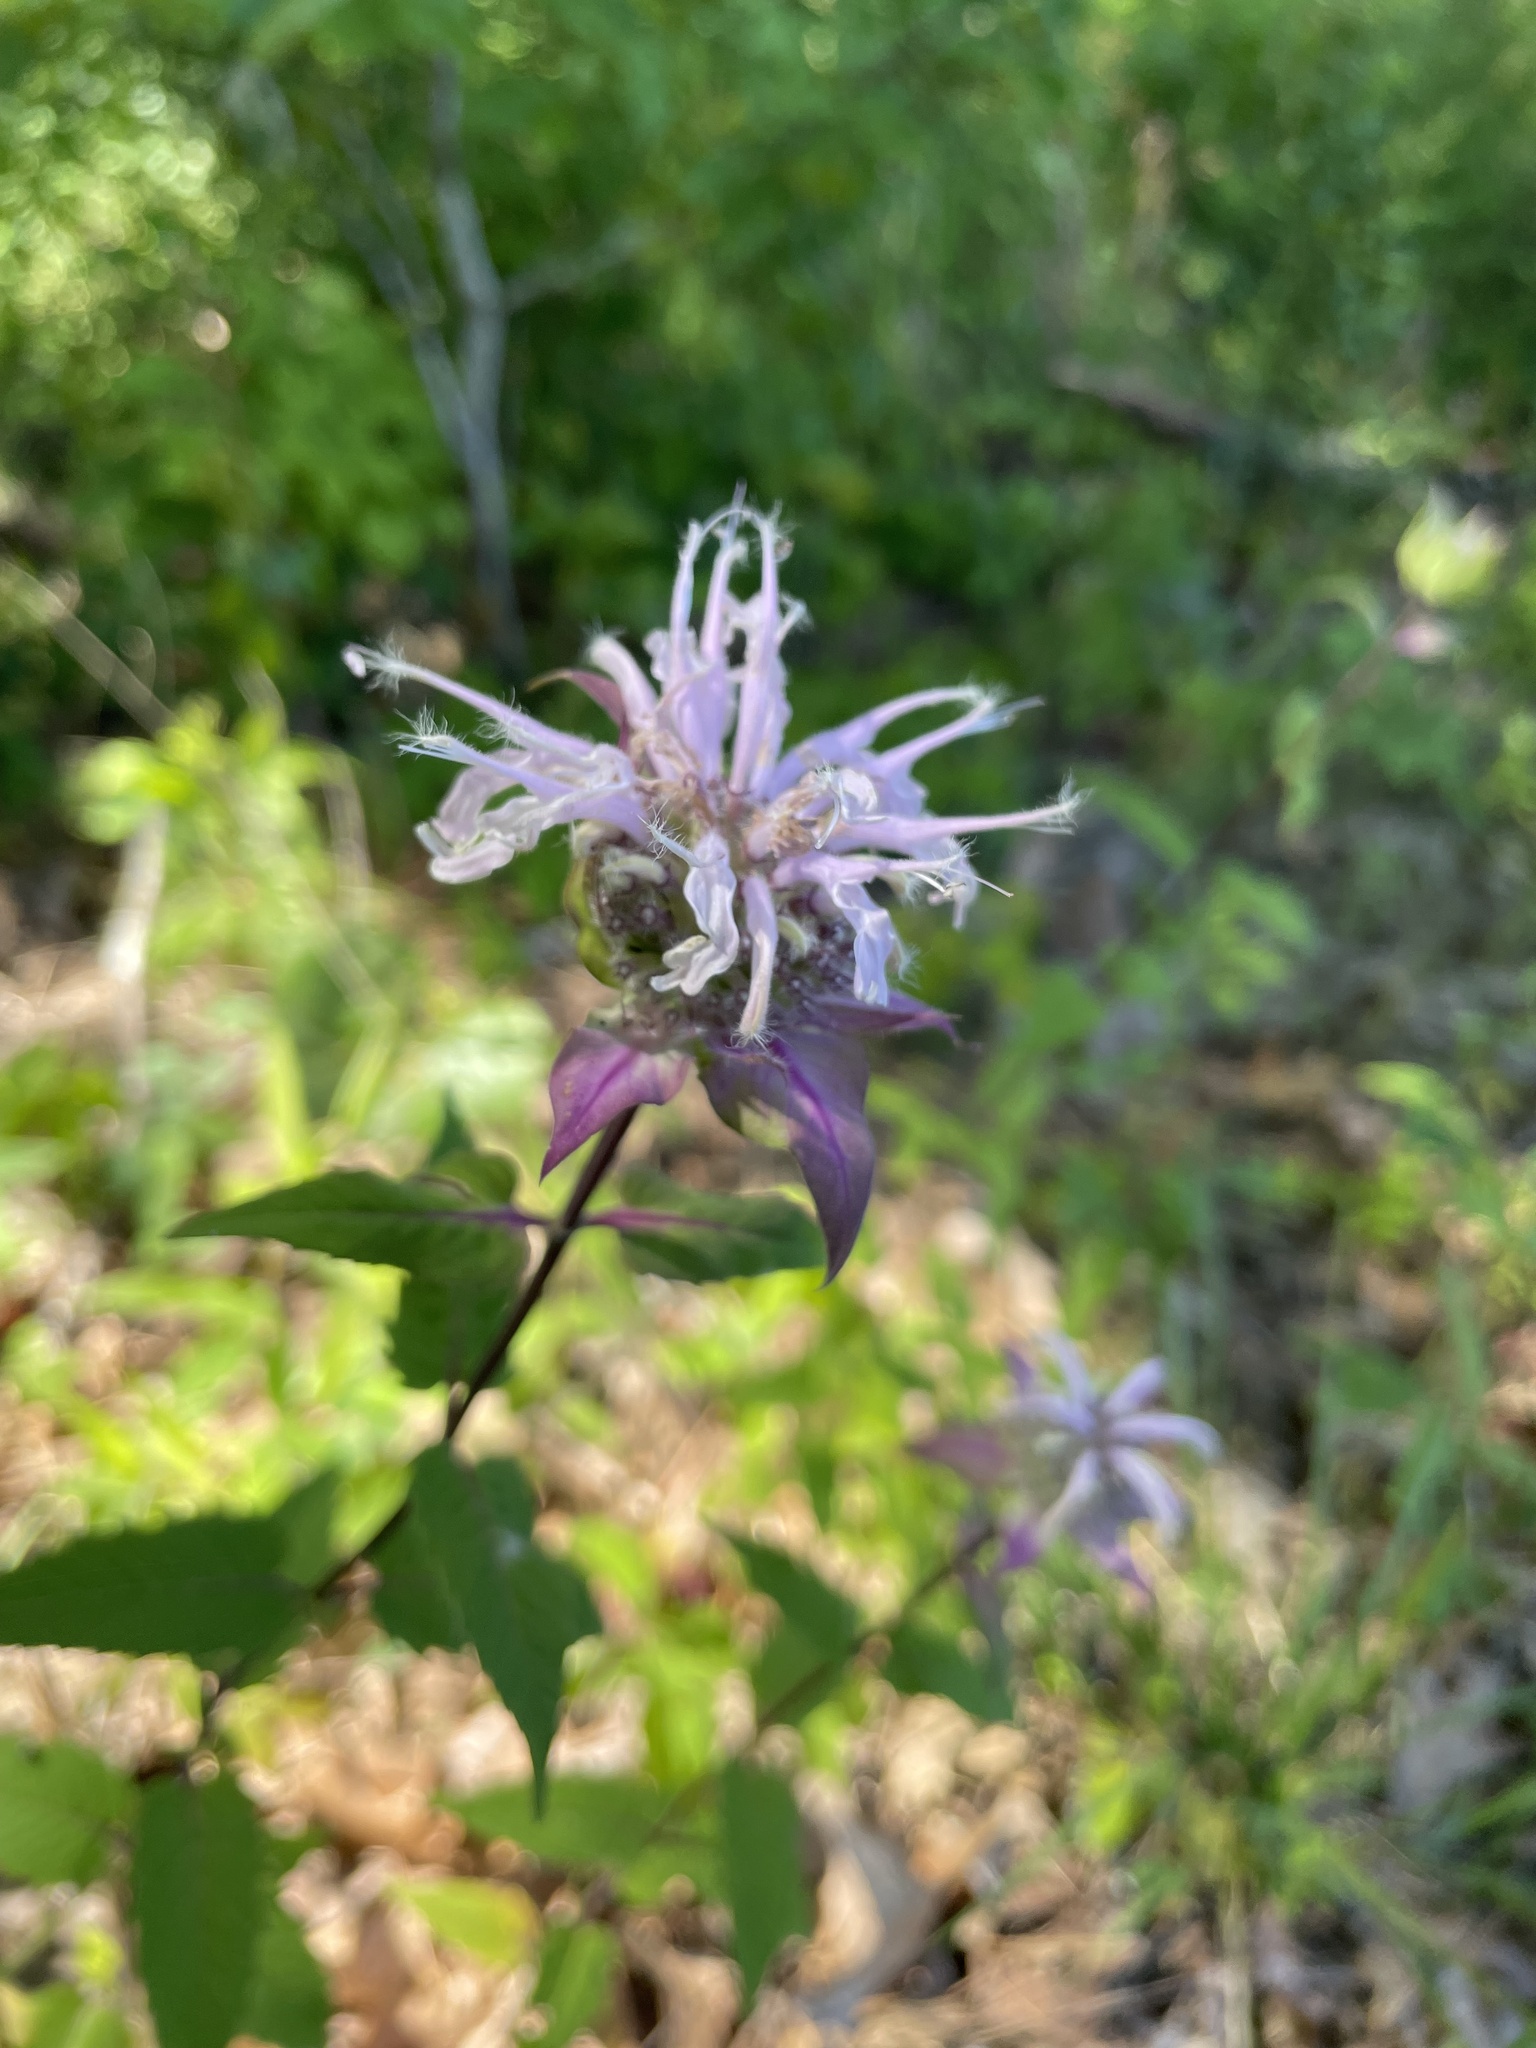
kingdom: Plantae
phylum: Tracheophyta
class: Magnoliopsida
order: Lamiales
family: Lamiaceae
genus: Monarda
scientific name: Monarda fistulosa
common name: Purple beebalm
